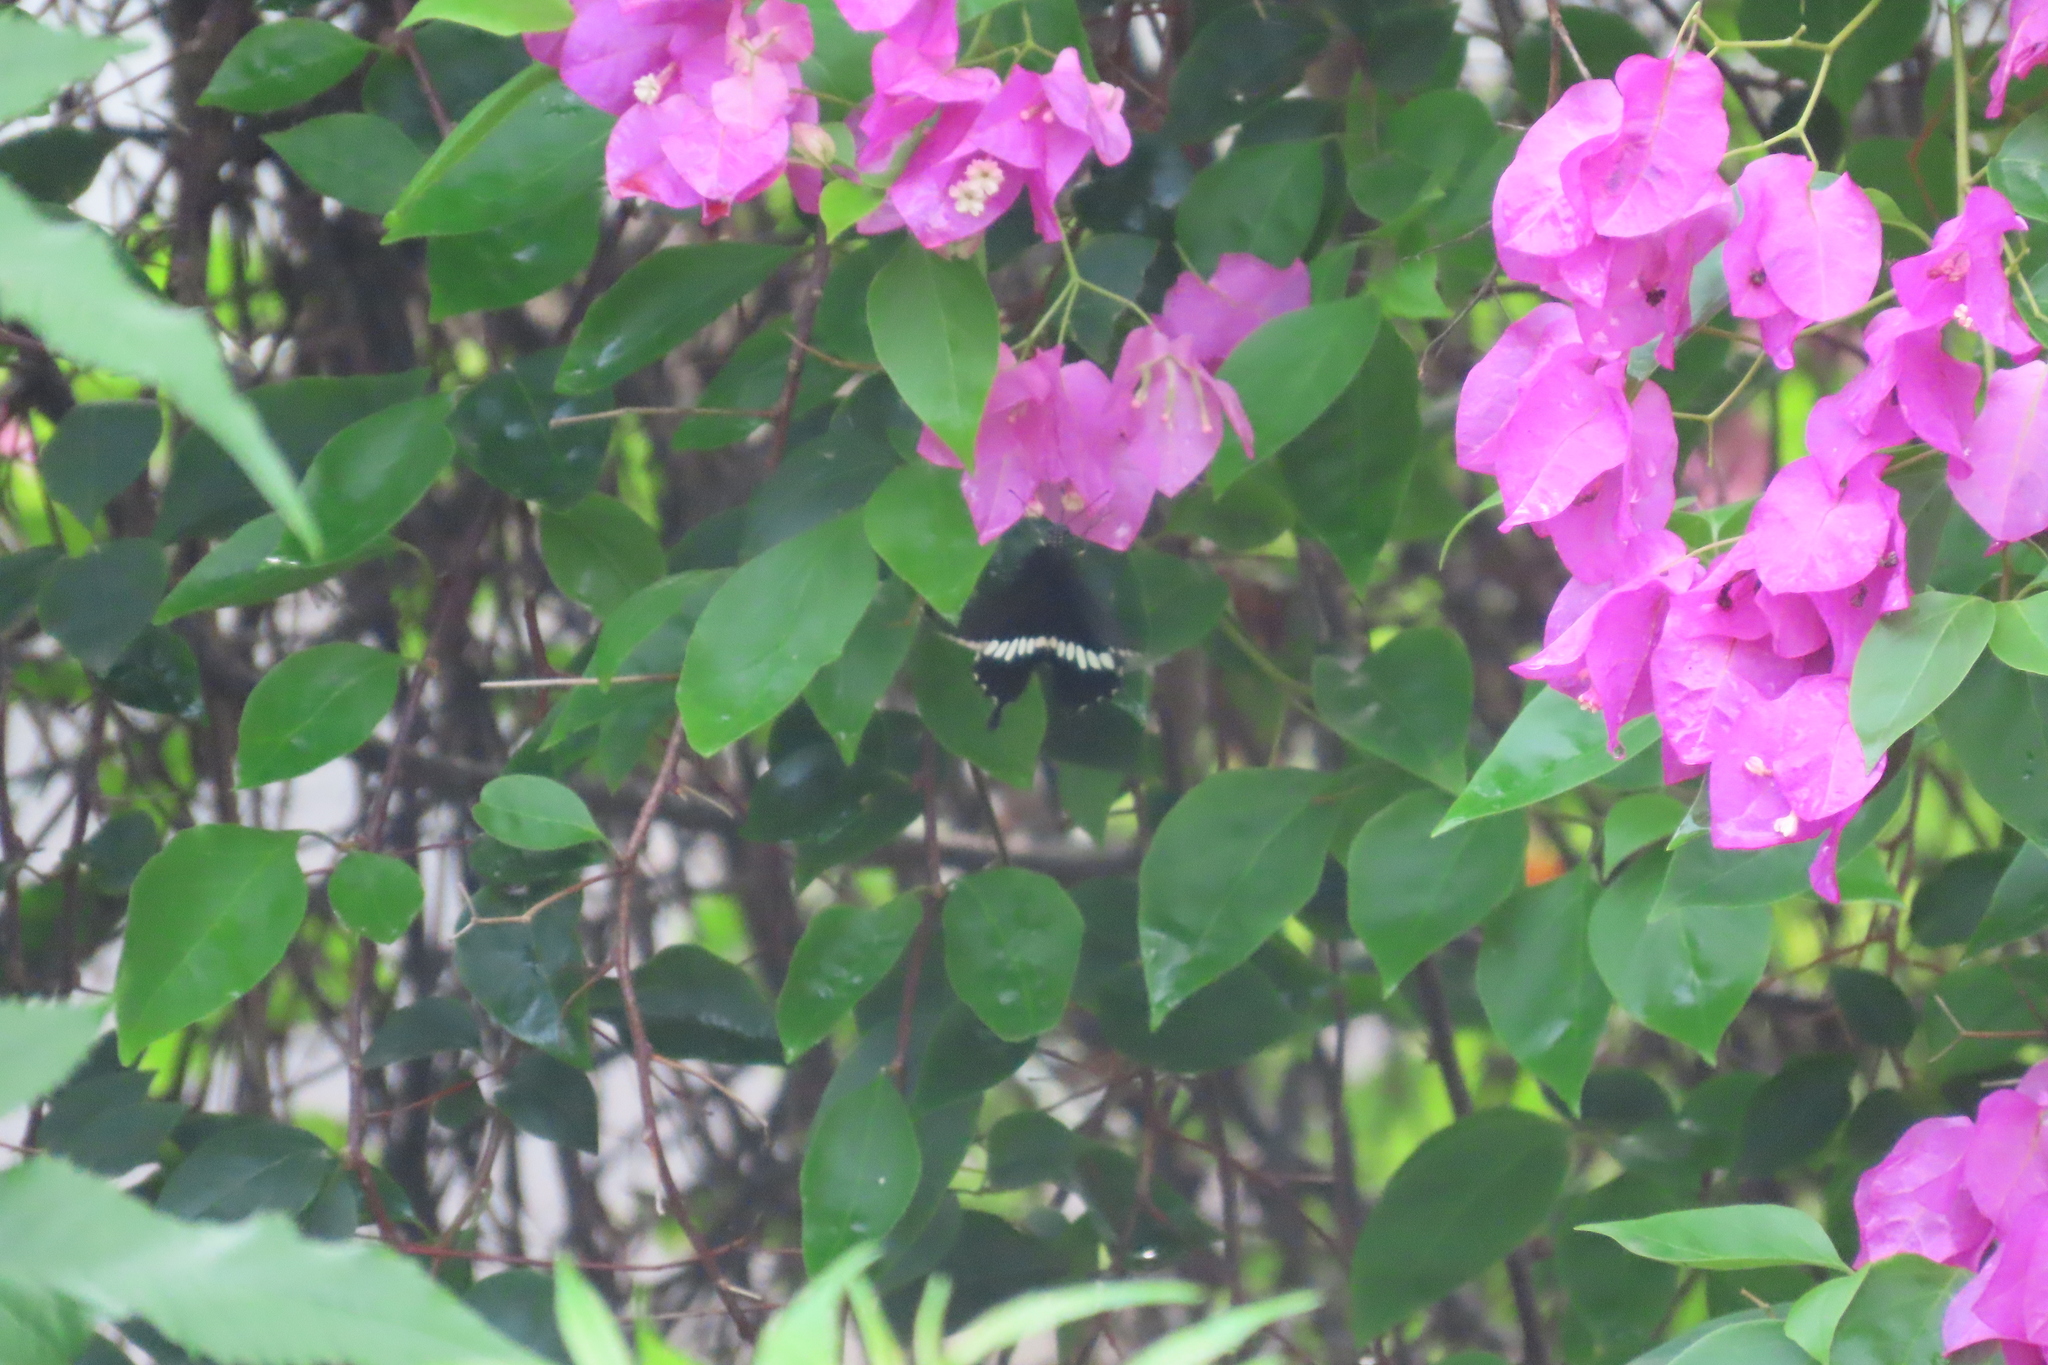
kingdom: Animalia
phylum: Arthropoda
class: Insecta
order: Lepidoptera
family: Papilionidae
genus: Papilio
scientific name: Papilio polytes
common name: Common mormon
